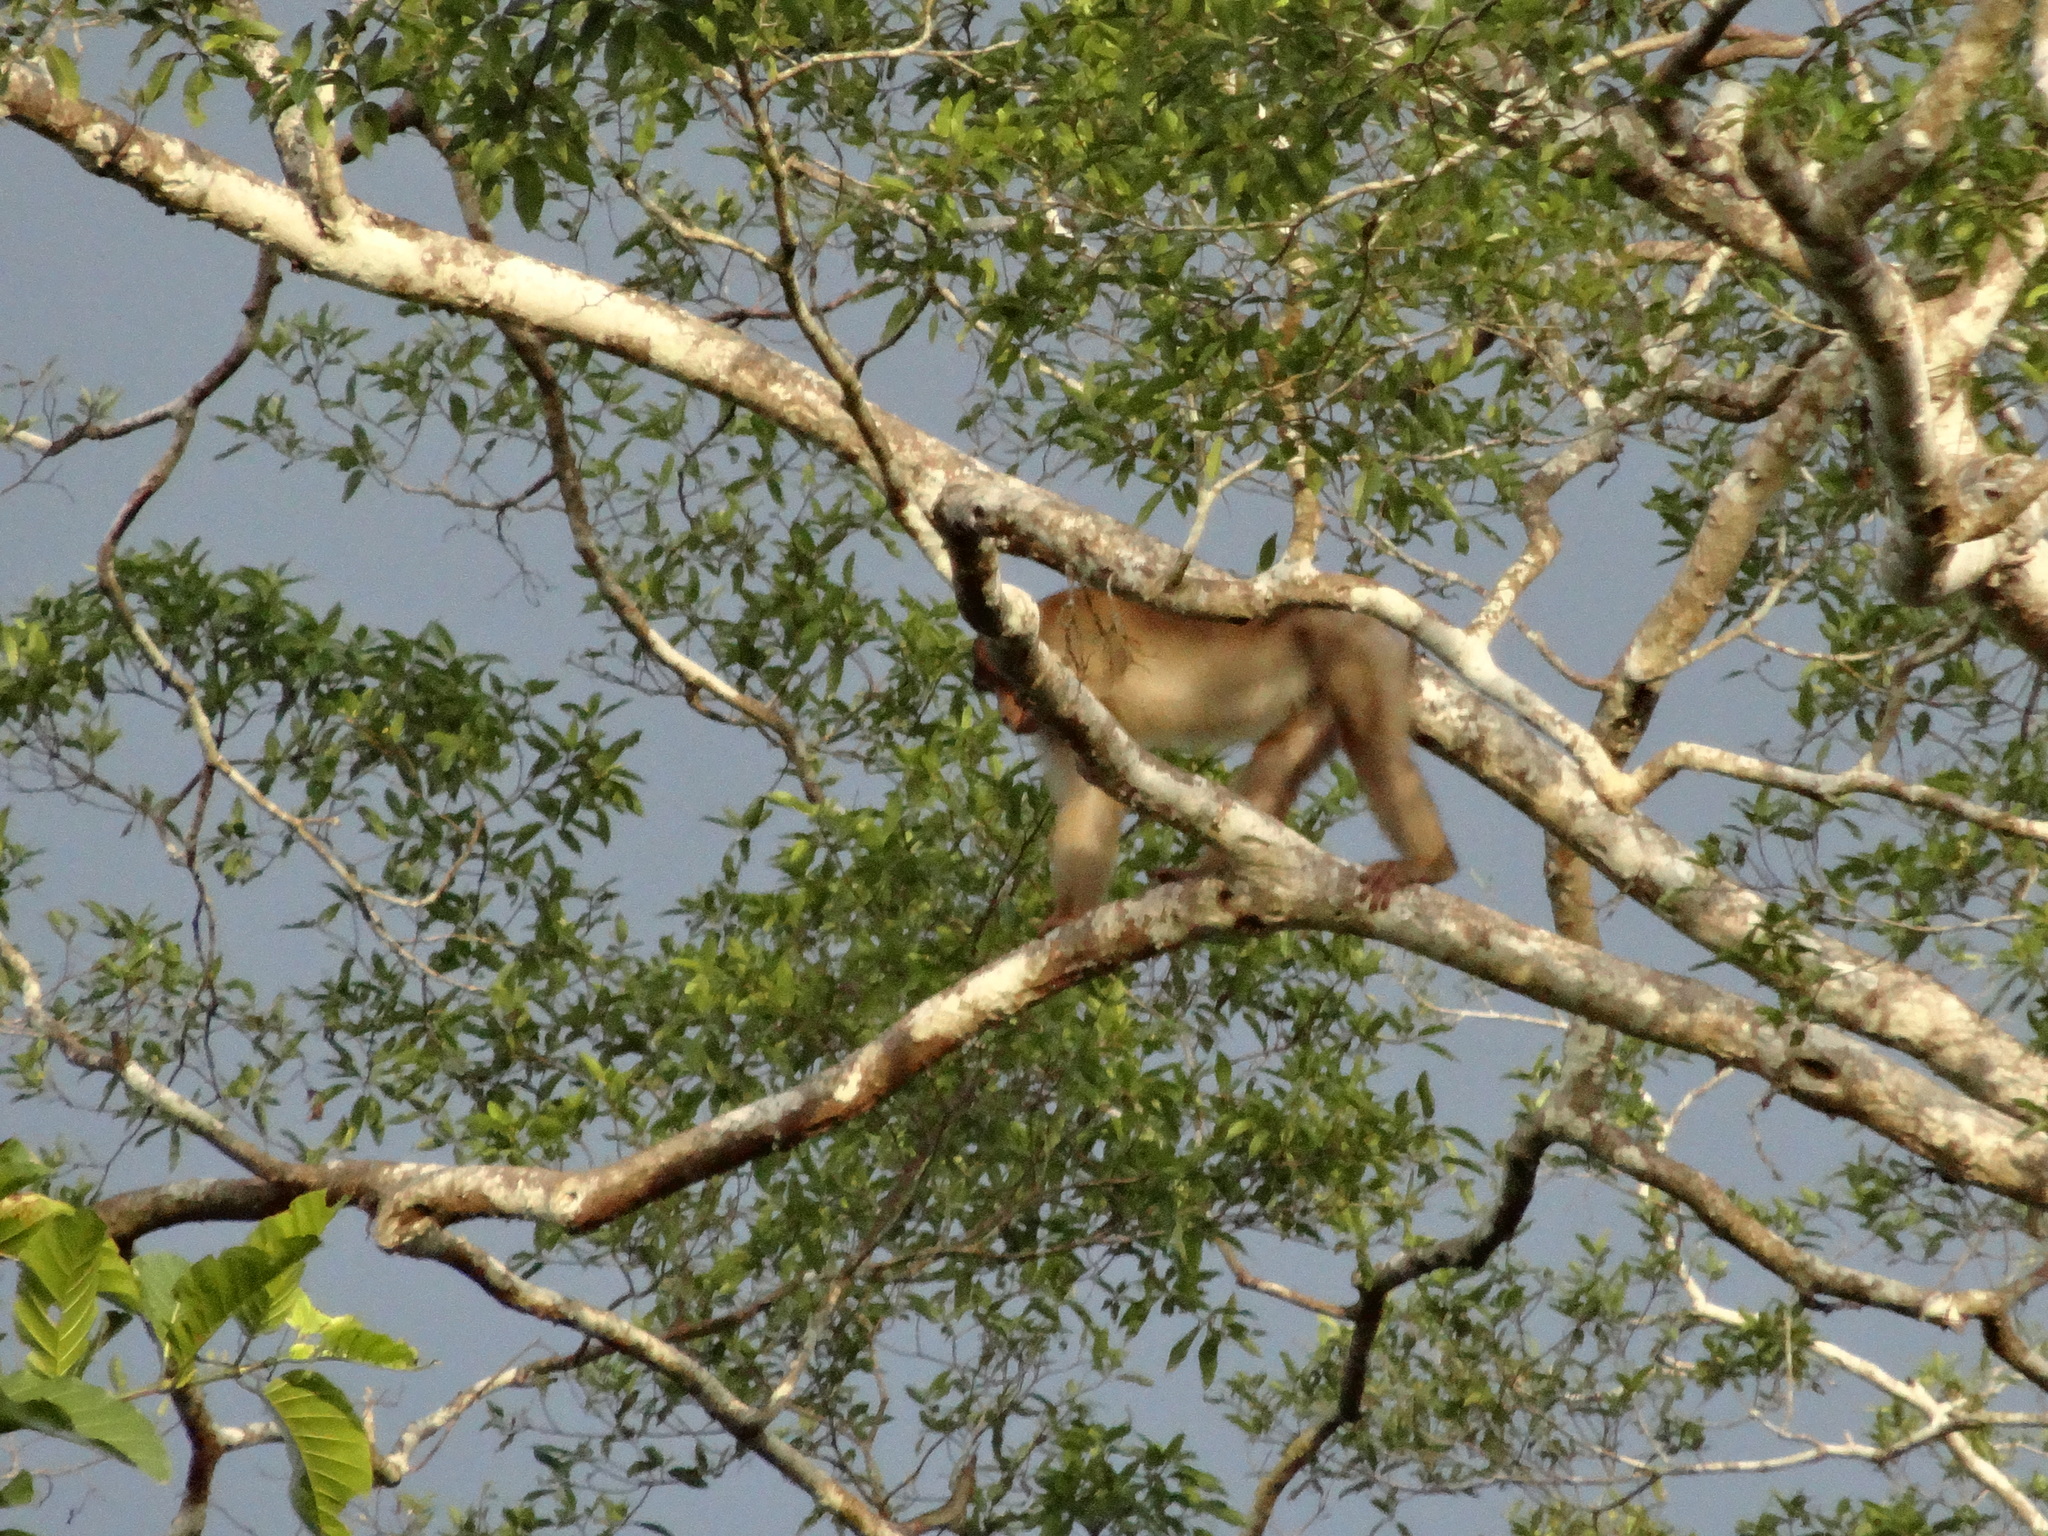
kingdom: Animalia
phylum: Chordata
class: Mammalia
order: Primates
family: Cercopithecidae
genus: Macaca
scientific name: Macaca nemestrina
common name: Southern pig-tailed macaque
